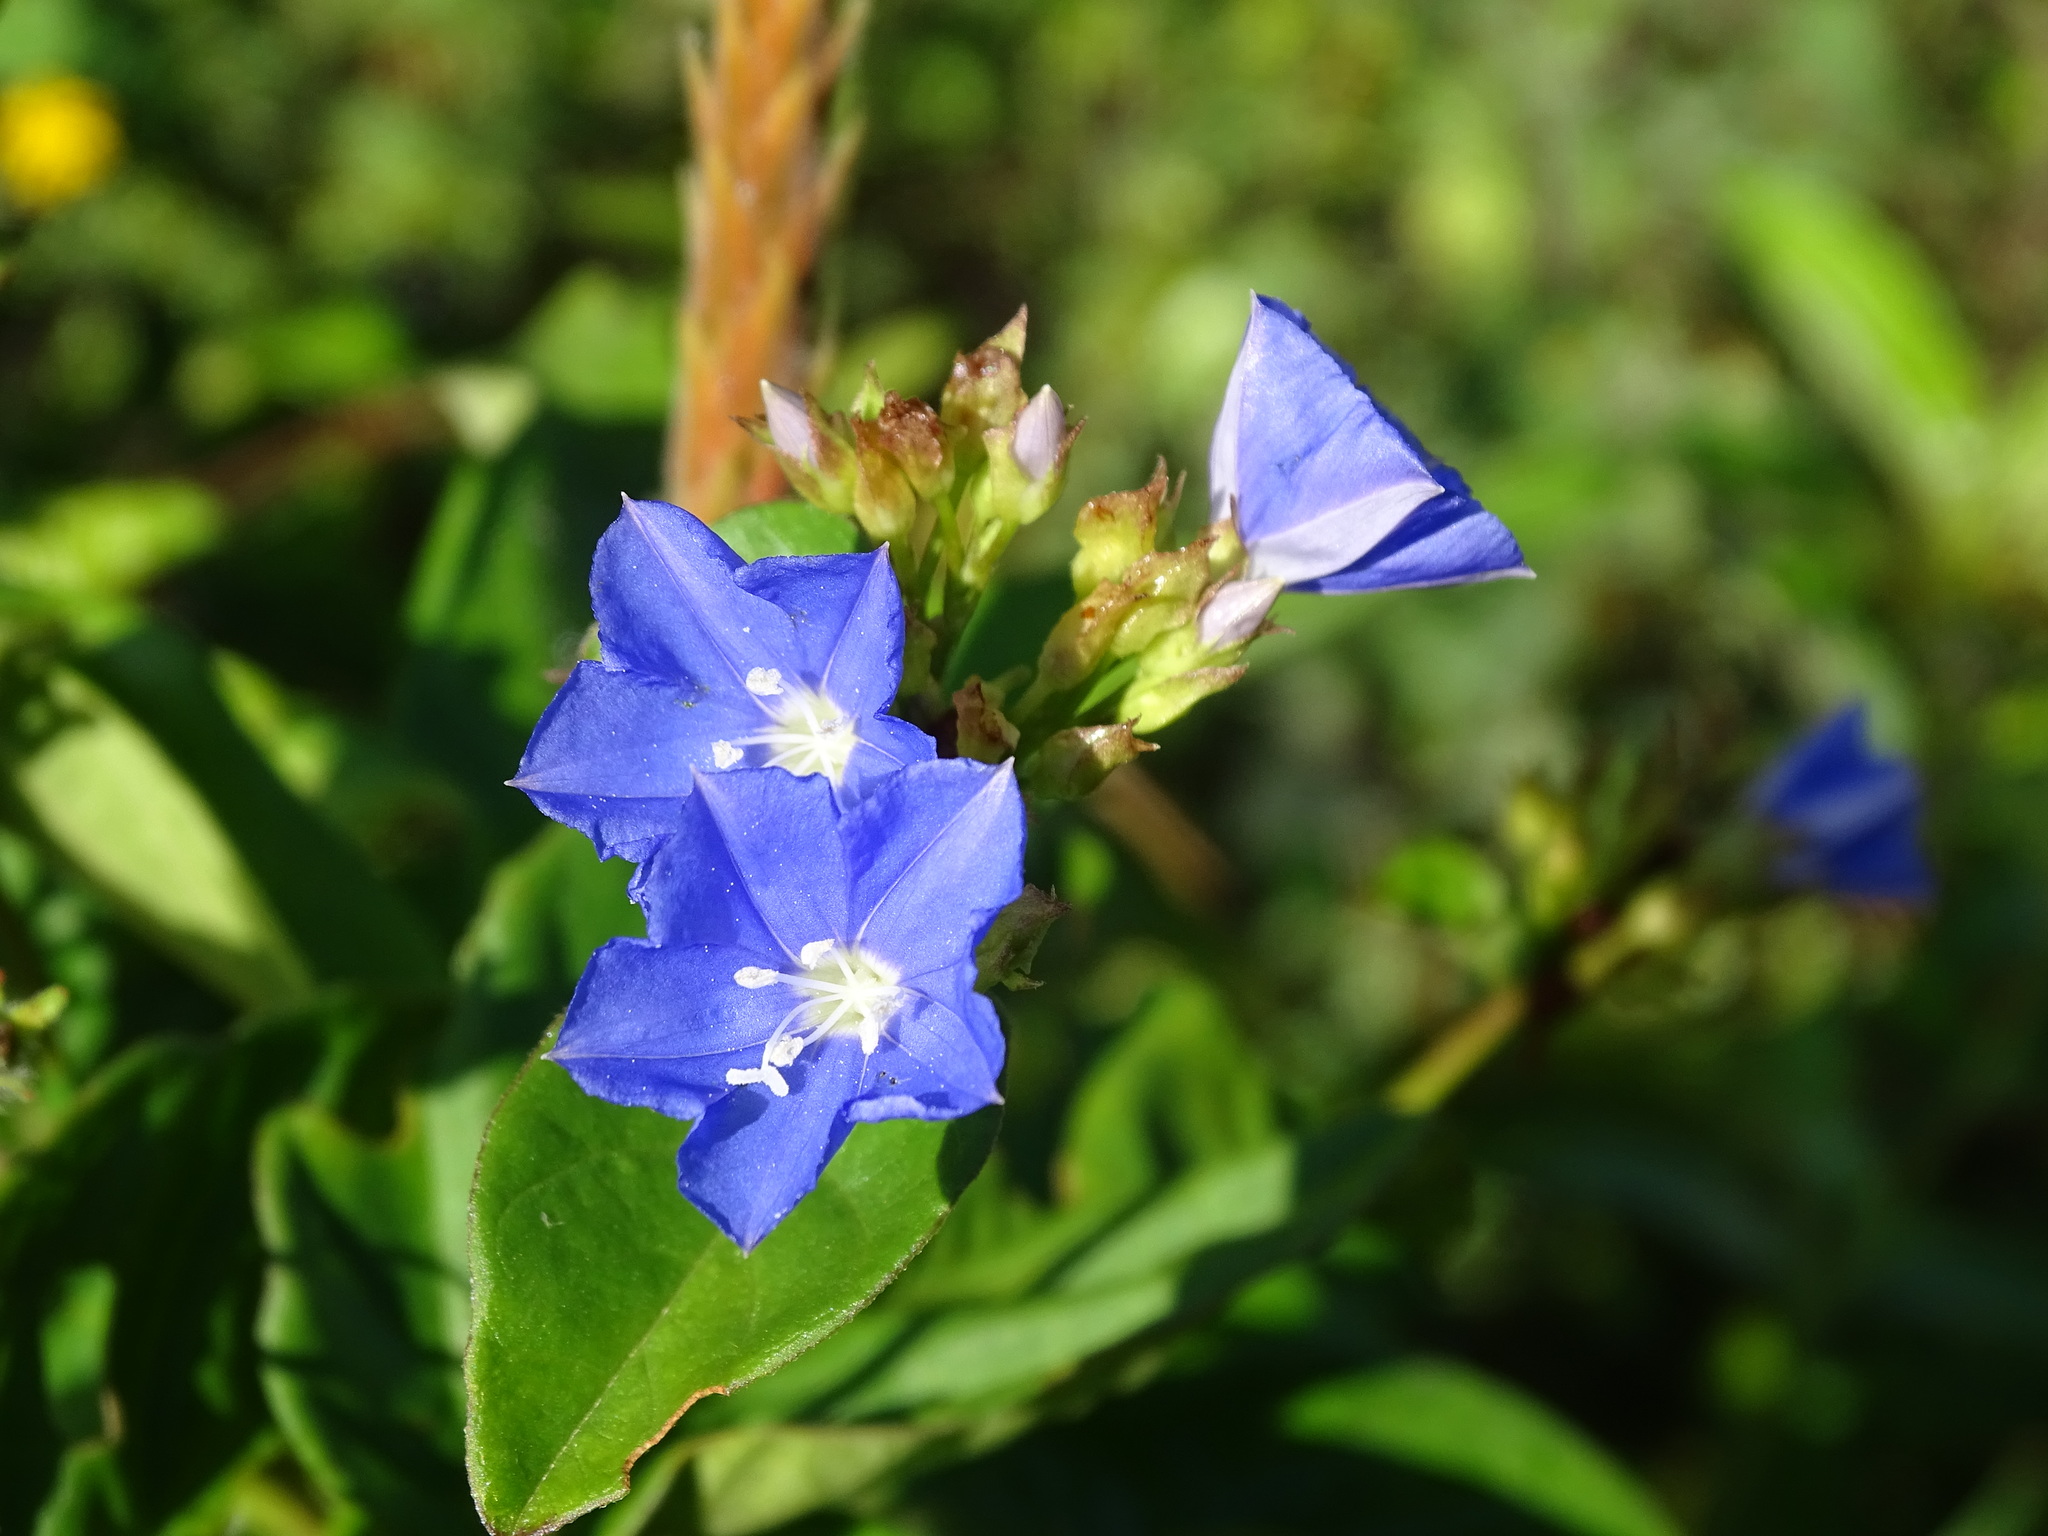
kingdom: Plantae
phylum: Tracheophyta
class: Magnoliopsida
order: Solanales
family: Convolvulaceae
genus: Jacquemontia
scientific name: Jacquemontia pentanthos
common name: Skyblue clustervine
